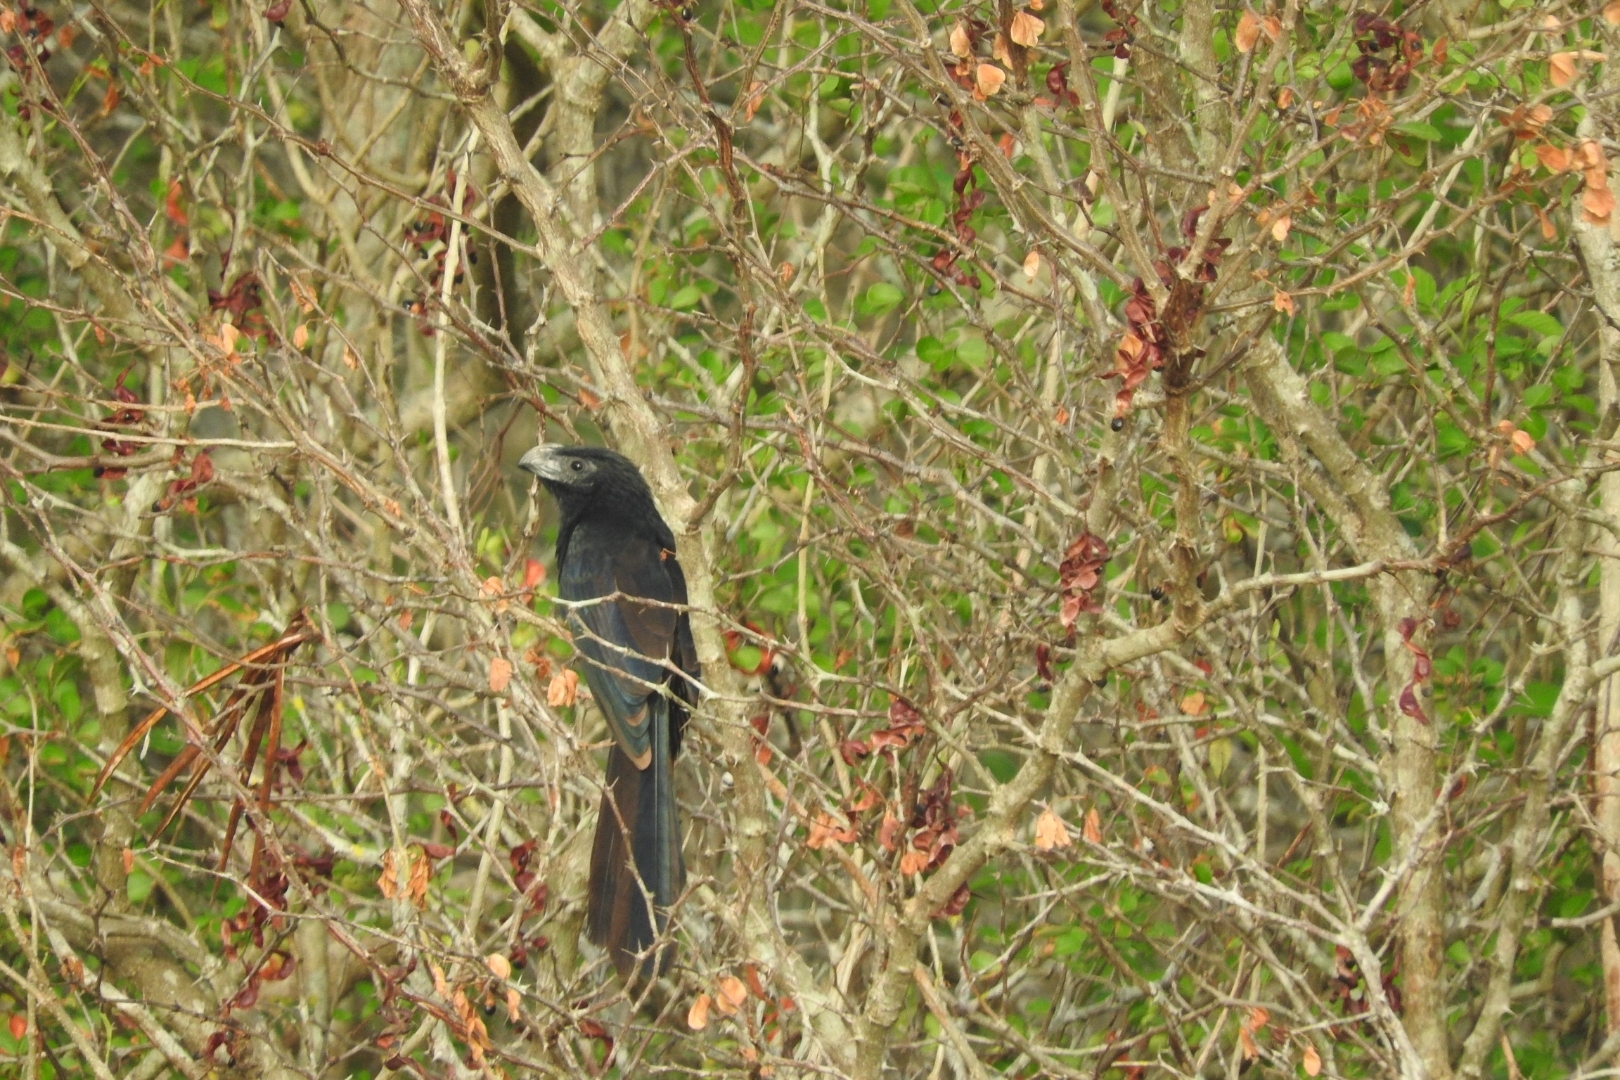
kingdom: Animalia
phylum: Chordata
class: Aves
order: Cuculiformes
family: Cuculidae
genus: Crotophaga
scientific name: Crotophaga sulcirostris
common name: Groove-billed ani
